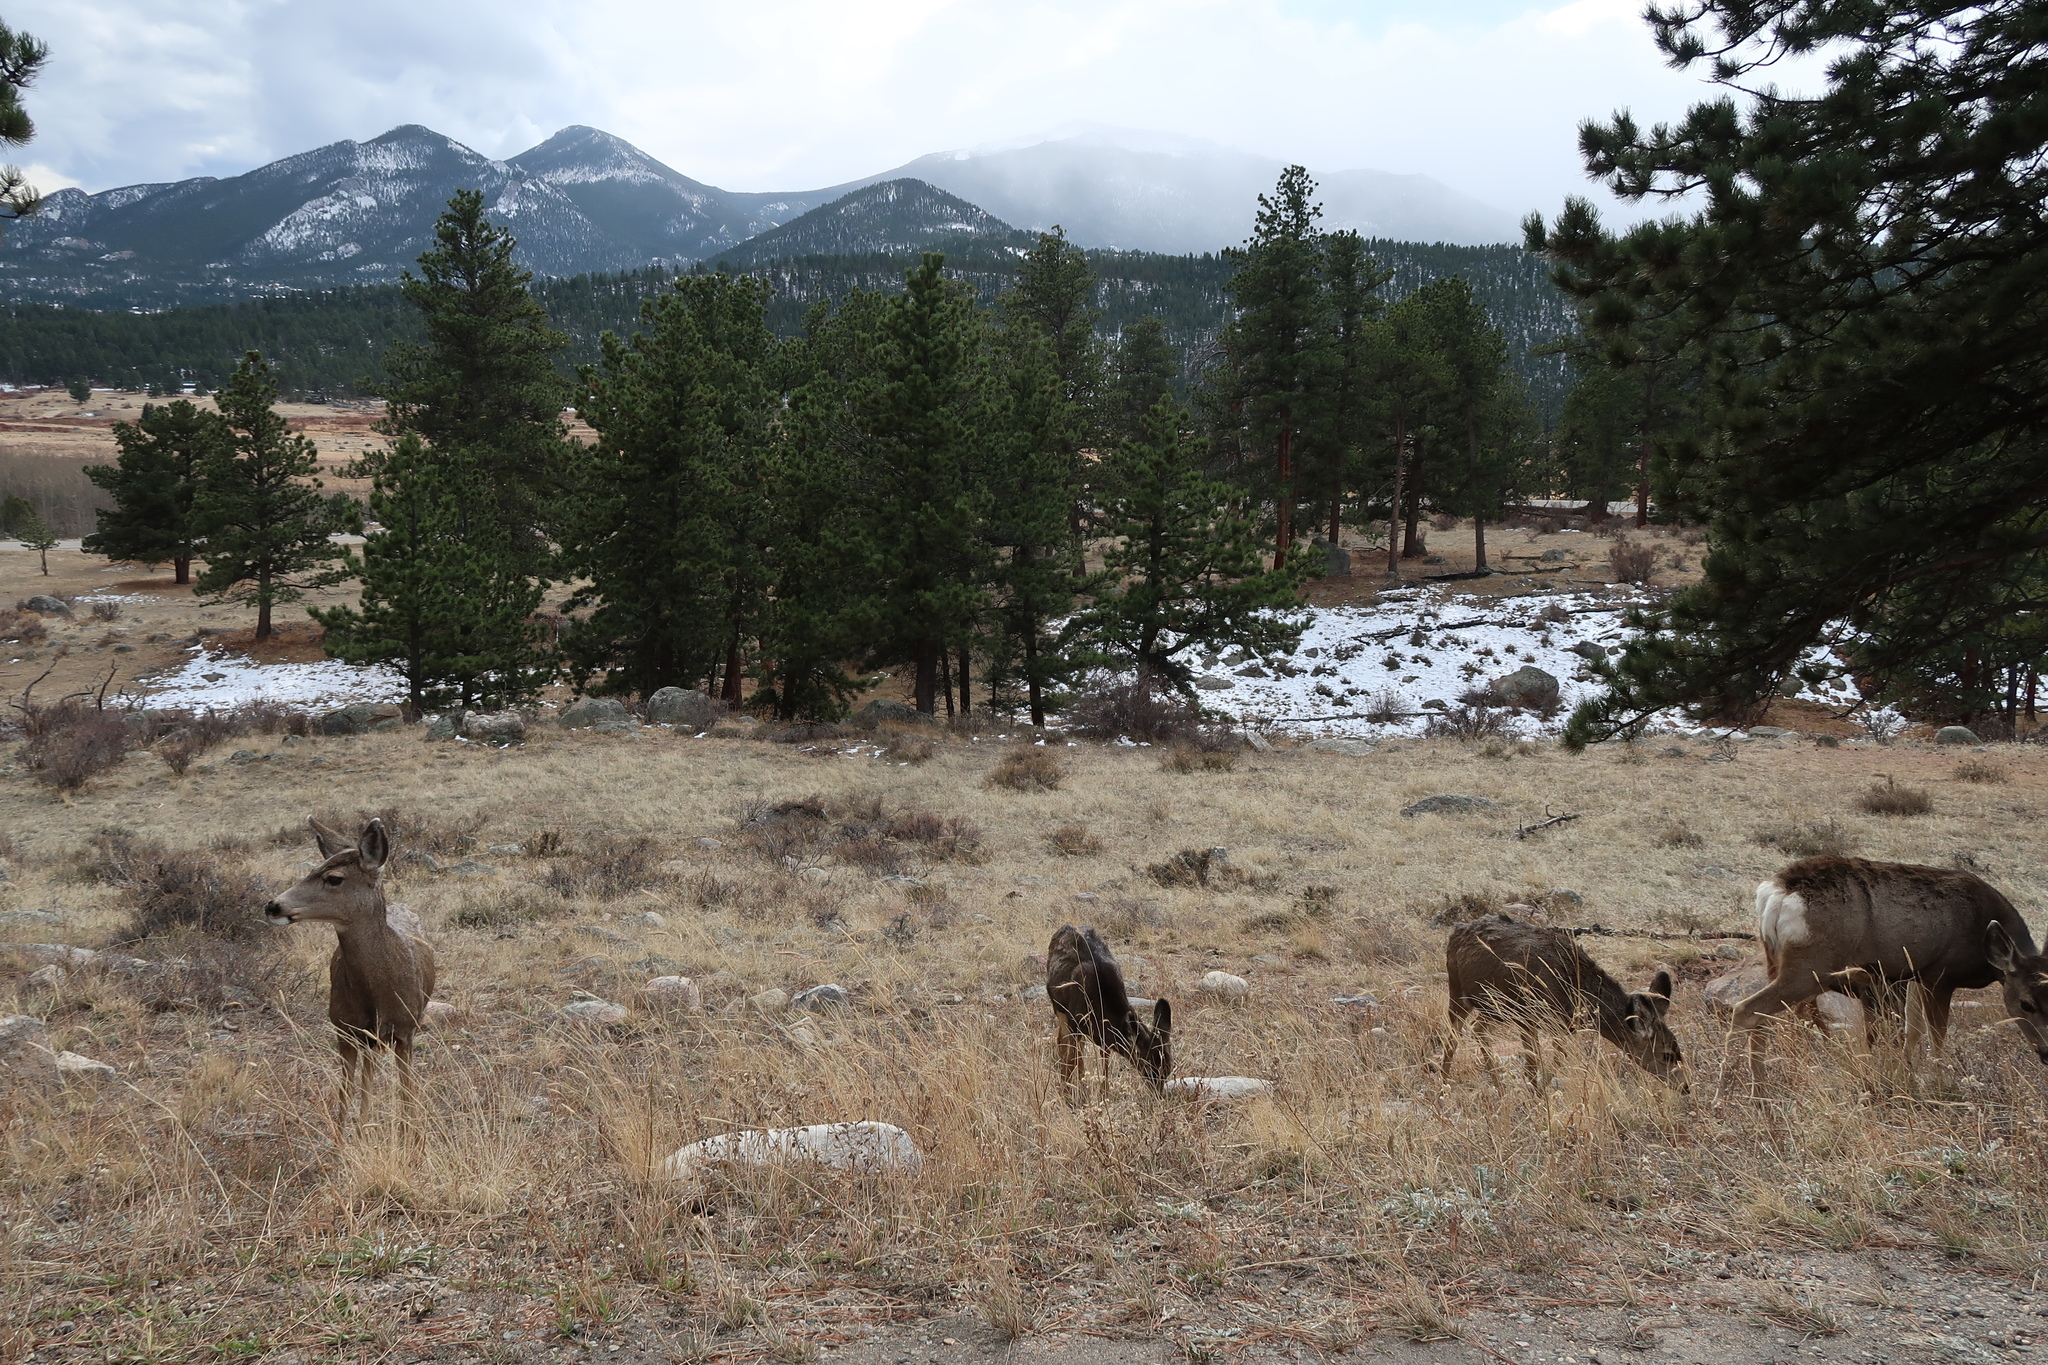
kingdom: Animalia
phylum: Chordata
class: Mammalia
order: Artiodactyla
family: Cervidae
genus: Odocoileus
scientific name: Odocoileus hemionus
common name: Mule deer
